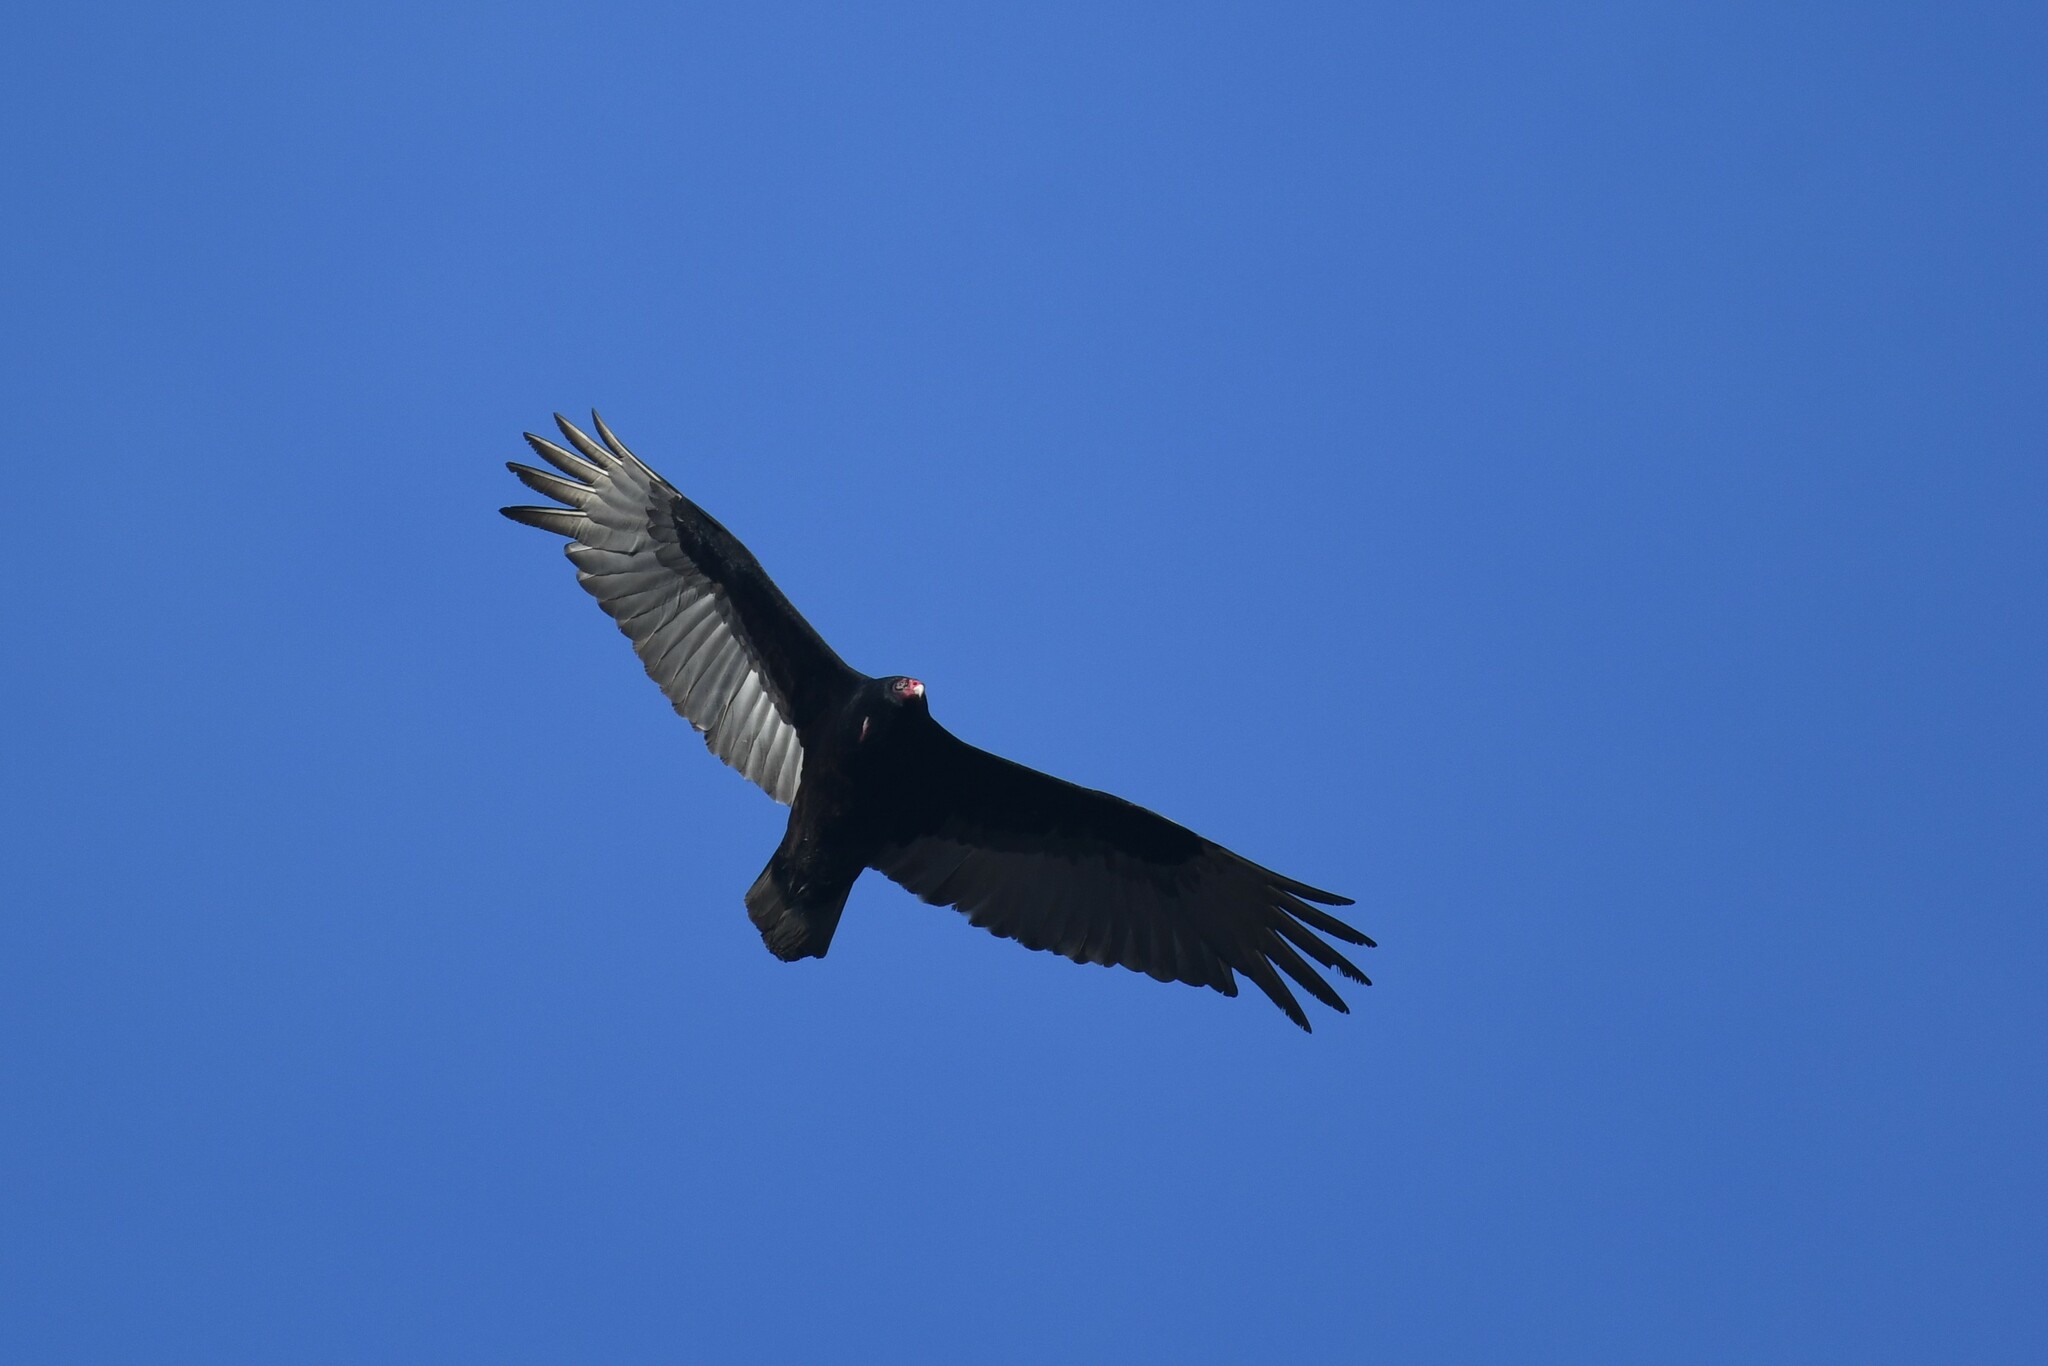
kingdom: Animalia
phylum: Chordata
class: Aves
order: Accipitriformes
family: Cathartidae
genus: Cathartes
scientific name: Cathartes aura
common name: Turkey vulture
